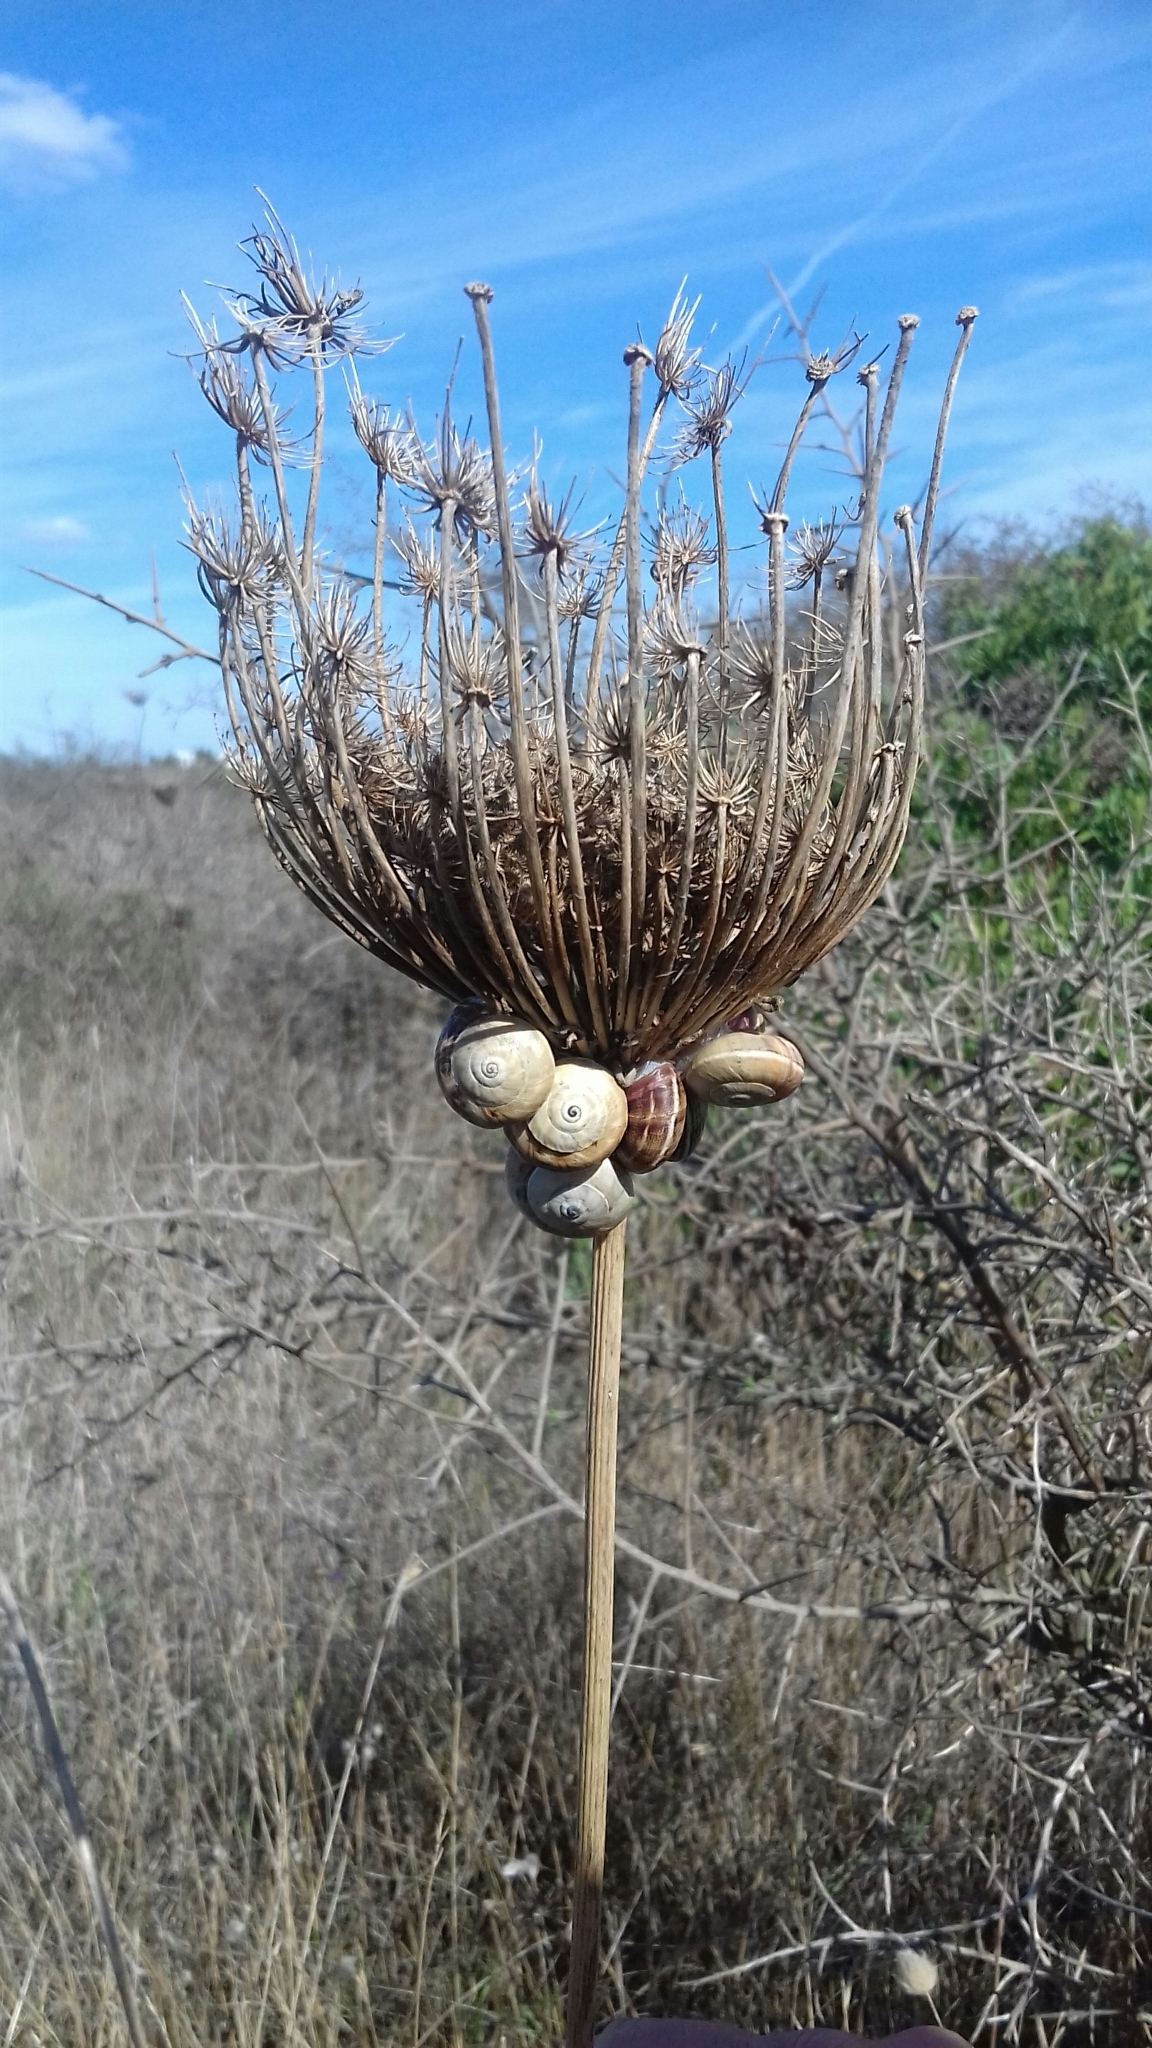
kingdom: Animalia
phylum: Mollusca
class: Gastropoda
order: Stylommatophora
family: Helicidae
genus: Theba
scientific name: Theba pisana
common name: White snail
